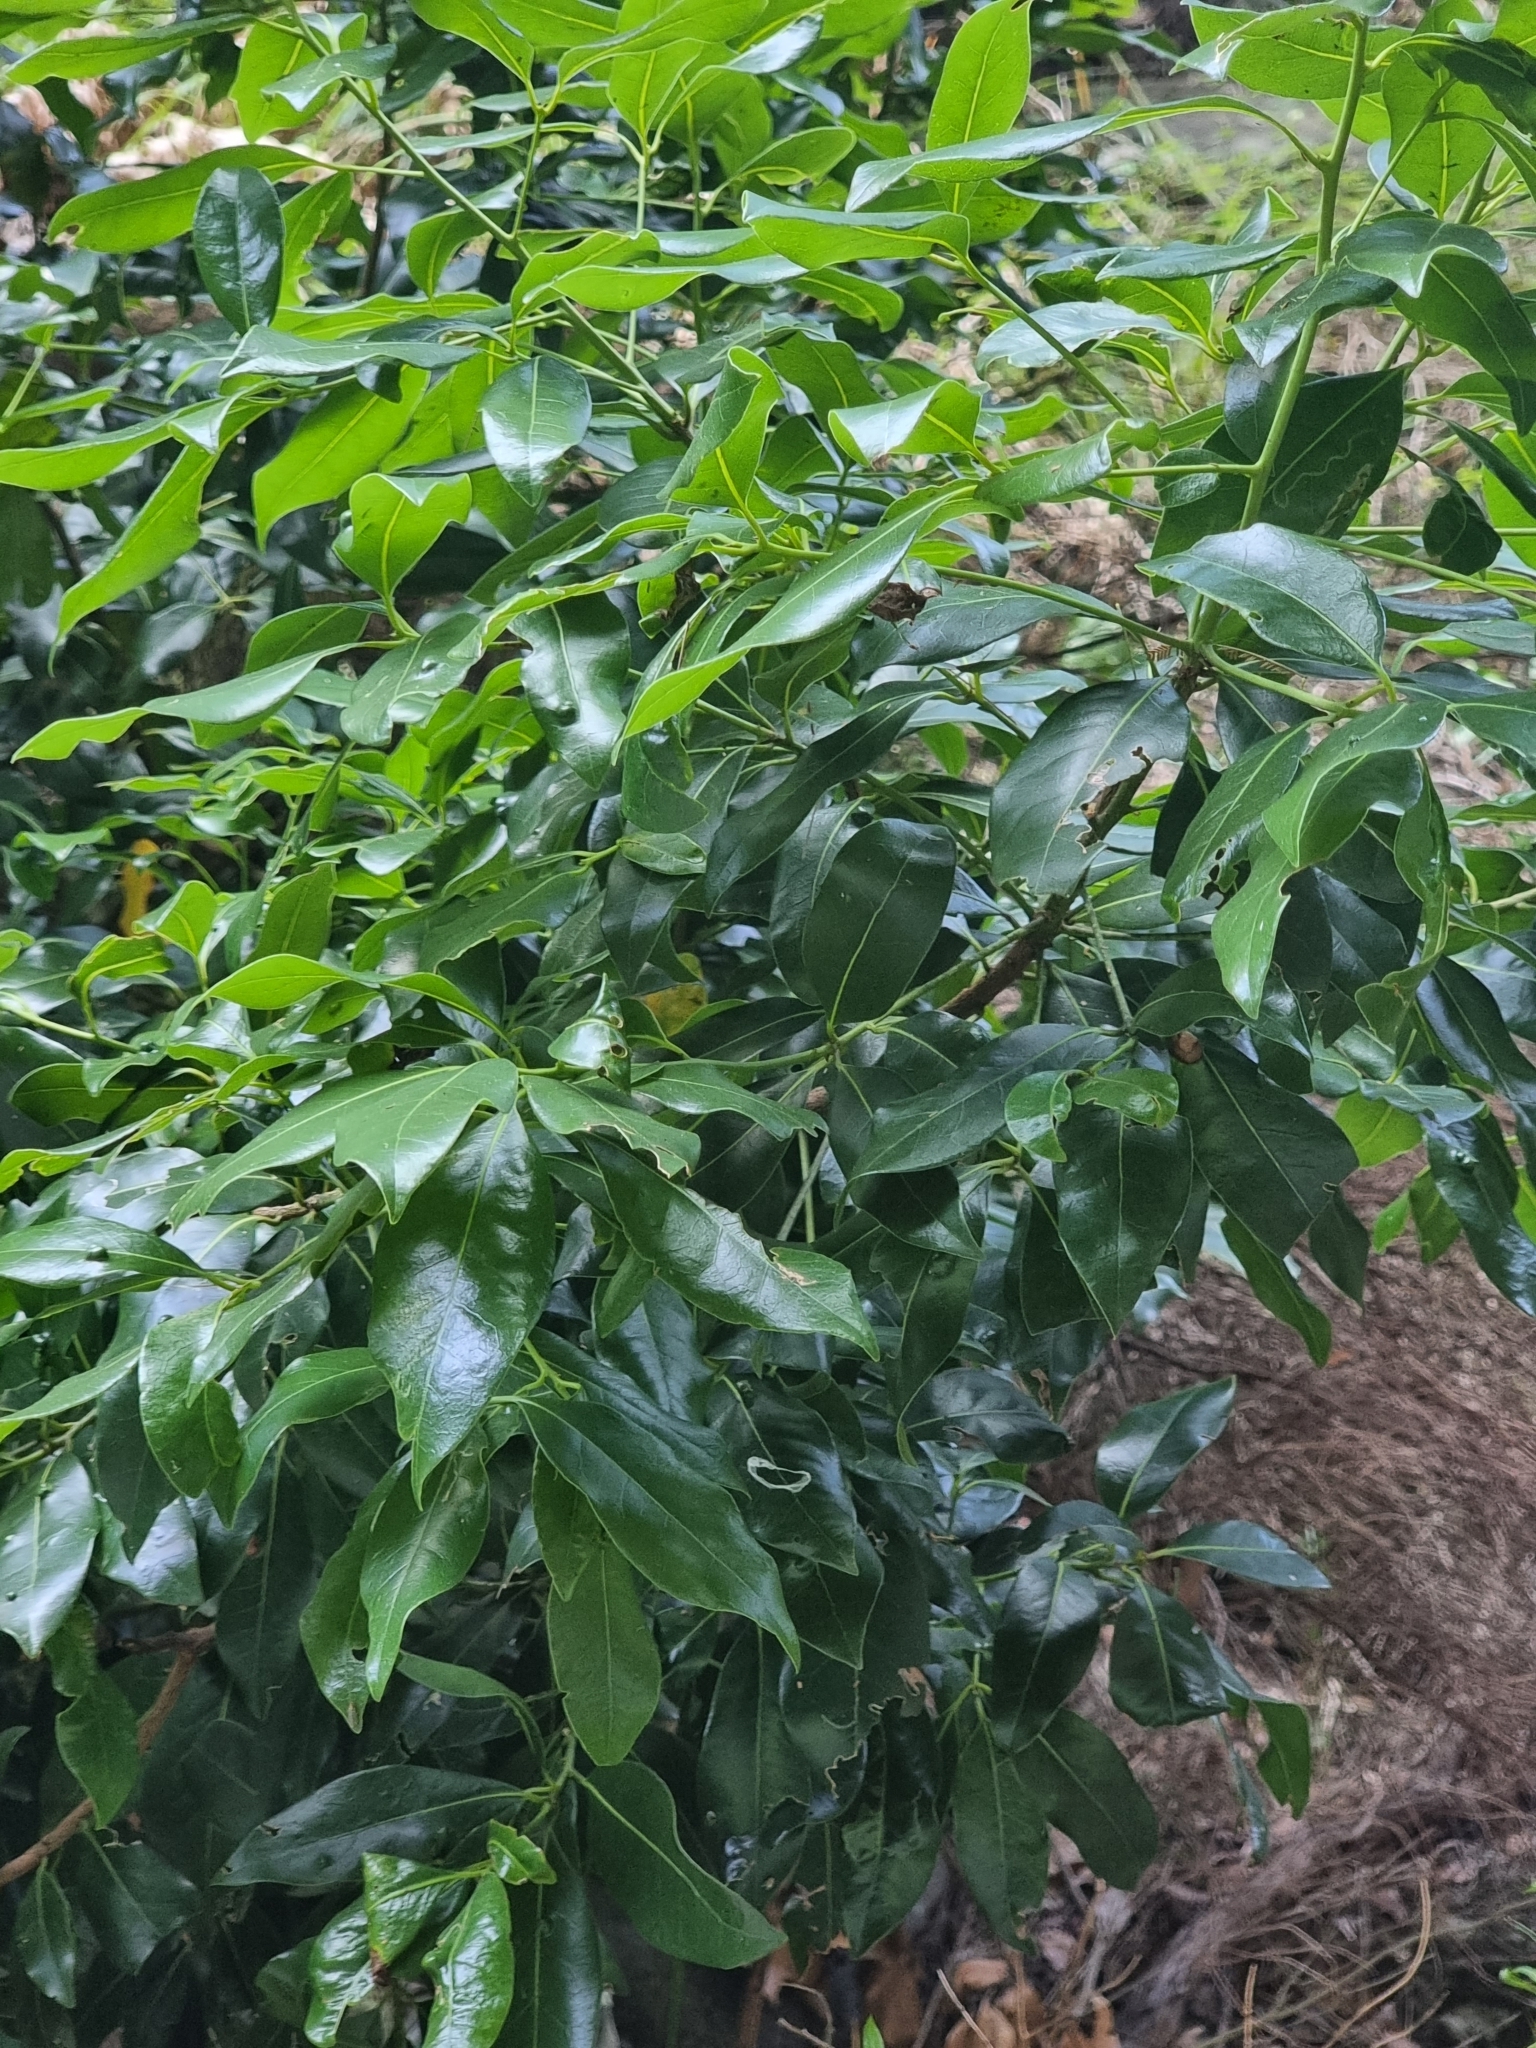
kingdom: Plantae
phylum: Tracheophyta
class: Magnoliopsida
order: Laurales
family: Lauraceae
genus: Apollonias
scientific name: Apollonias barbujana
